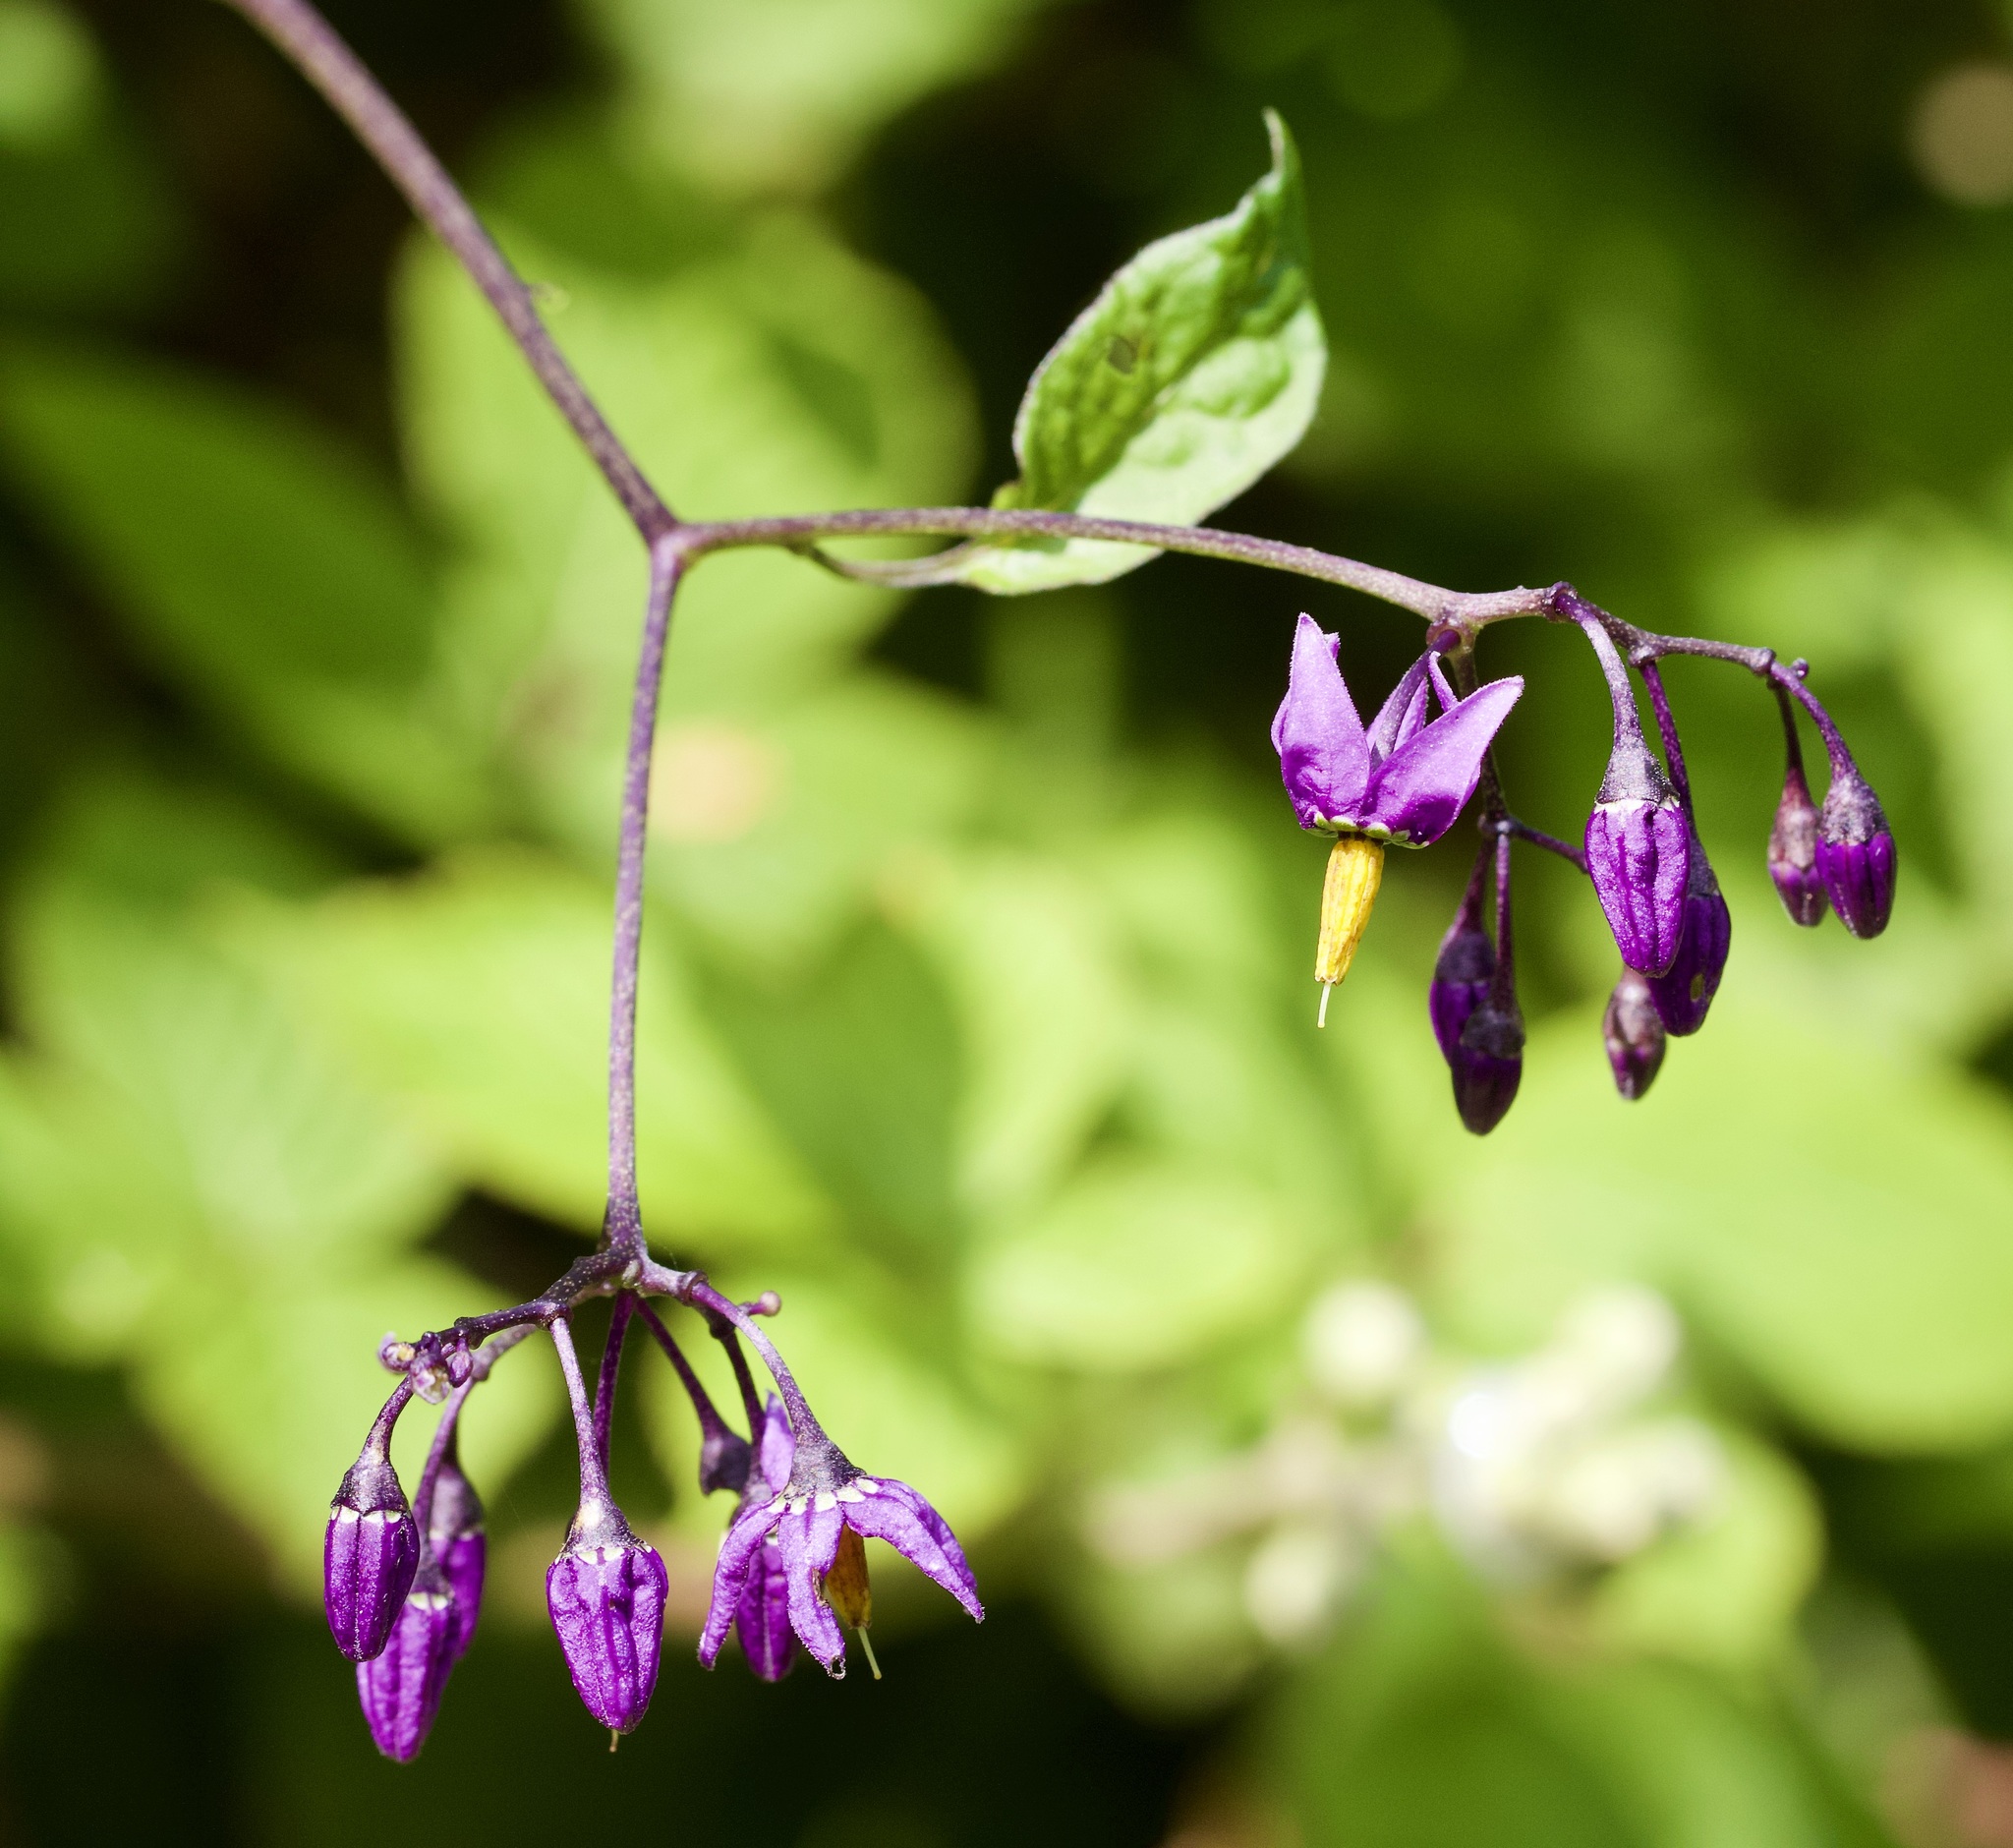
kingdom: Plantae
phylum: Tracheophyta
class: Magnoliopsida
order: Solanales
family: Solanaceae
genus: Solanum
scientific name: Solanum dulcamara
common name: Climbing nightshade
